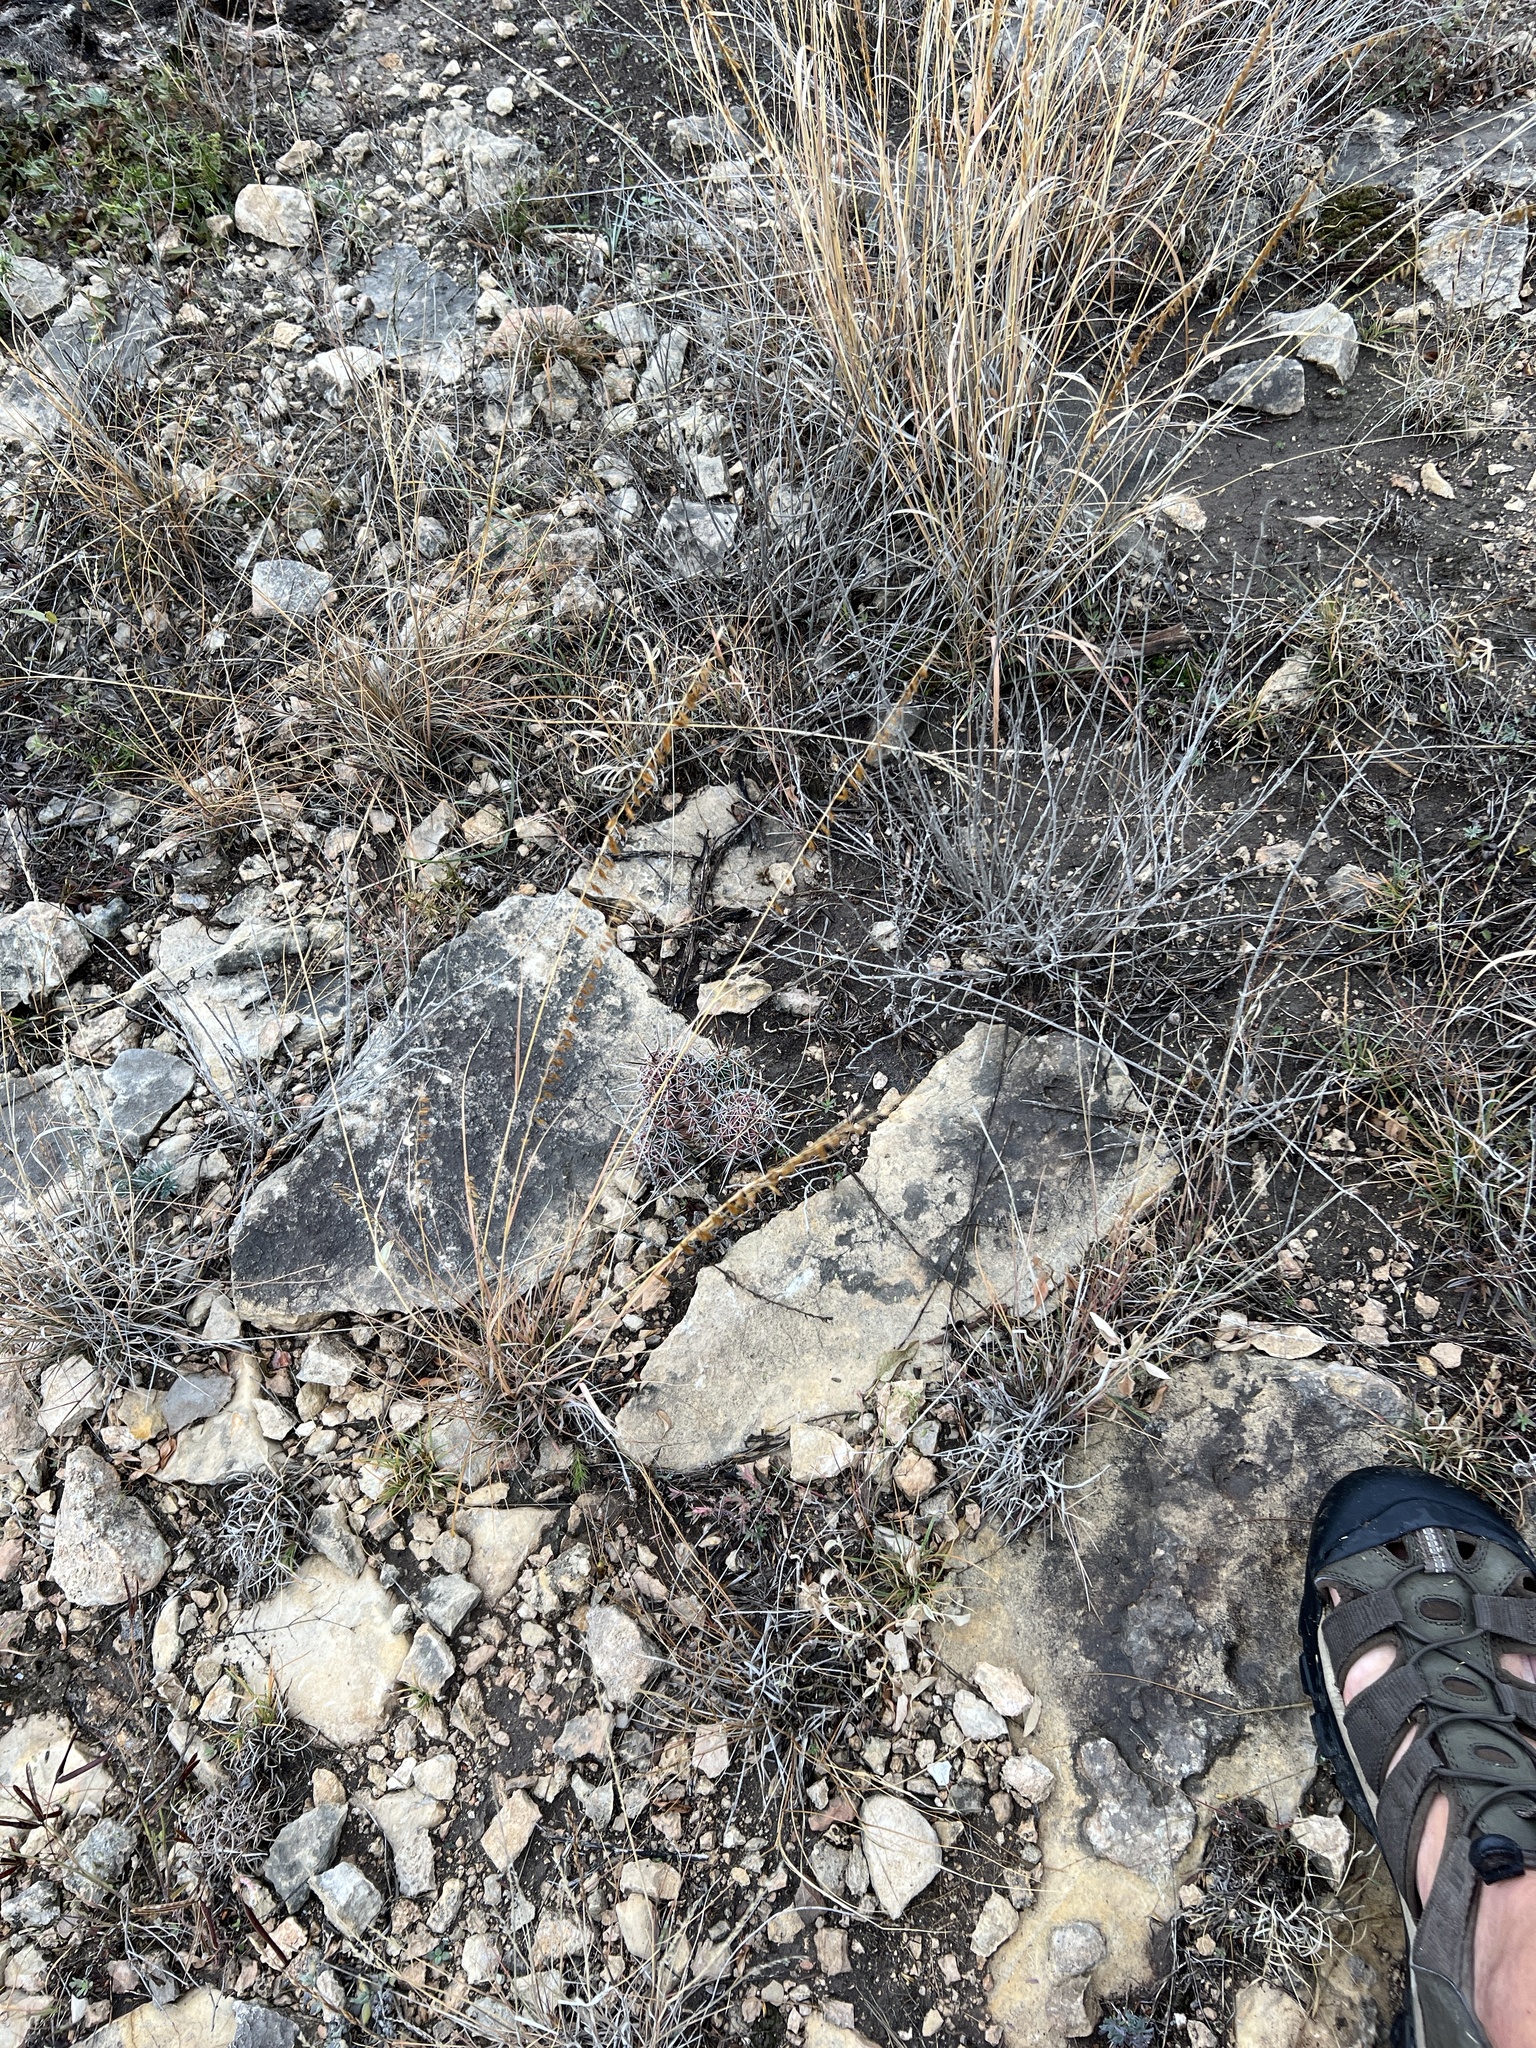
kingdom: Plantae
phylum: Tracheophyta
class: Liliopsida
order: Poales
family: Poaceae
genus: Bouteloua
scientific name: Bouteloua curtipendula
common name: Side-oats grama
